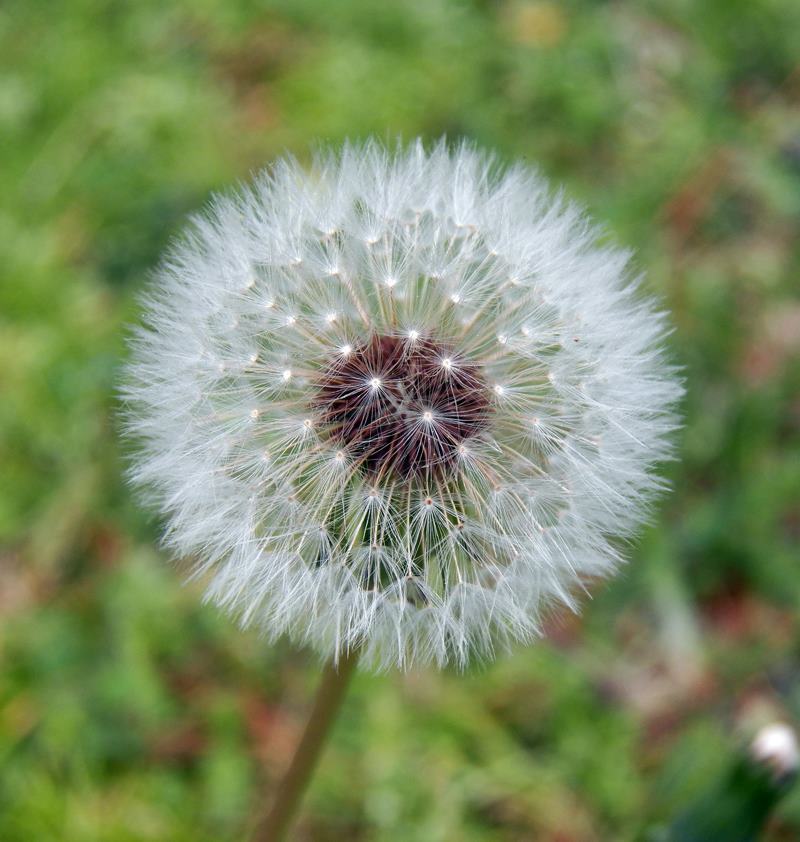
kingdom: Plantae
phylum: Tracheophyta
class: Magnoliopsida
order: Asterales
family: Asteraceae
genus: Taraxacum
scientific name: Taraxacum officinale
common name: Common dandelion
